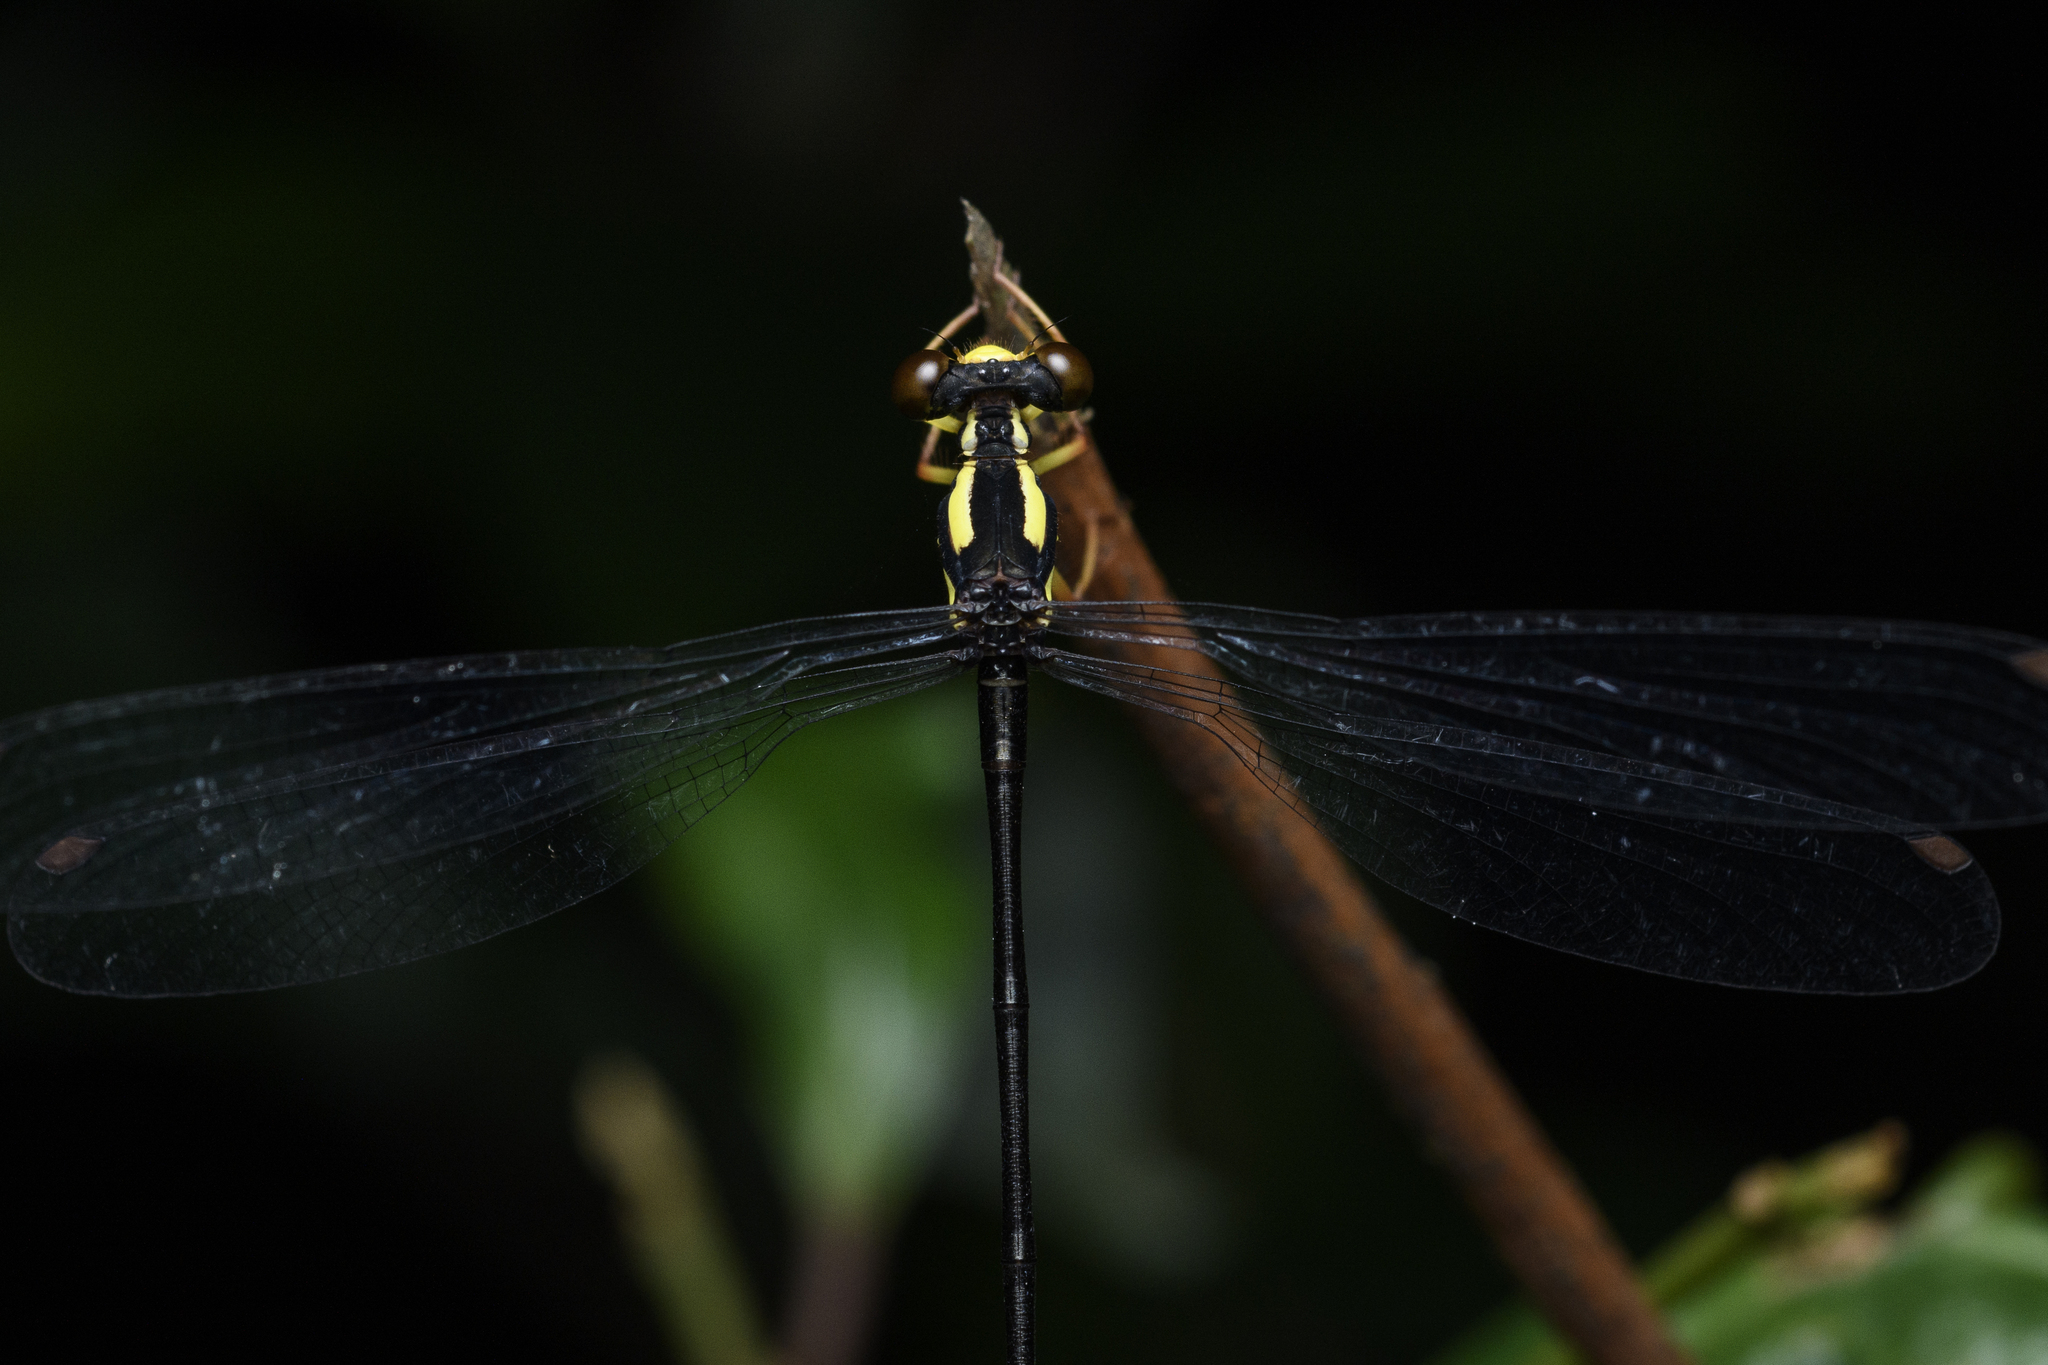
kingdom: Animalia
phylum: Arthropoda
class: Insecta
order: Odonata
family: Megapodagrionidae
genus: Rhipidolestes
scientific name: Rhipidolestes janetae
